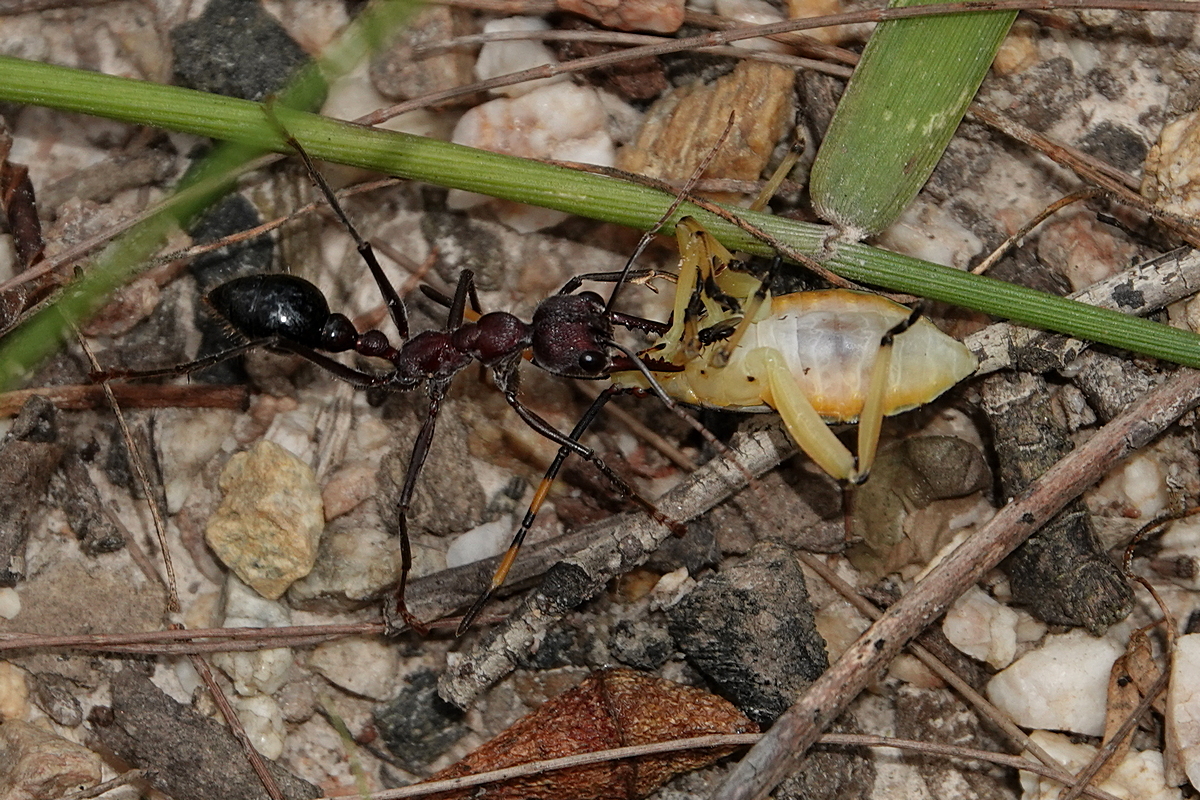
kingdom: Animalia
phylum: Arthropoda
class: Insecta
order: Hymenoptera
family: Formicidae
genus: Myrmecia
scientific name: Myrmecia simillima
